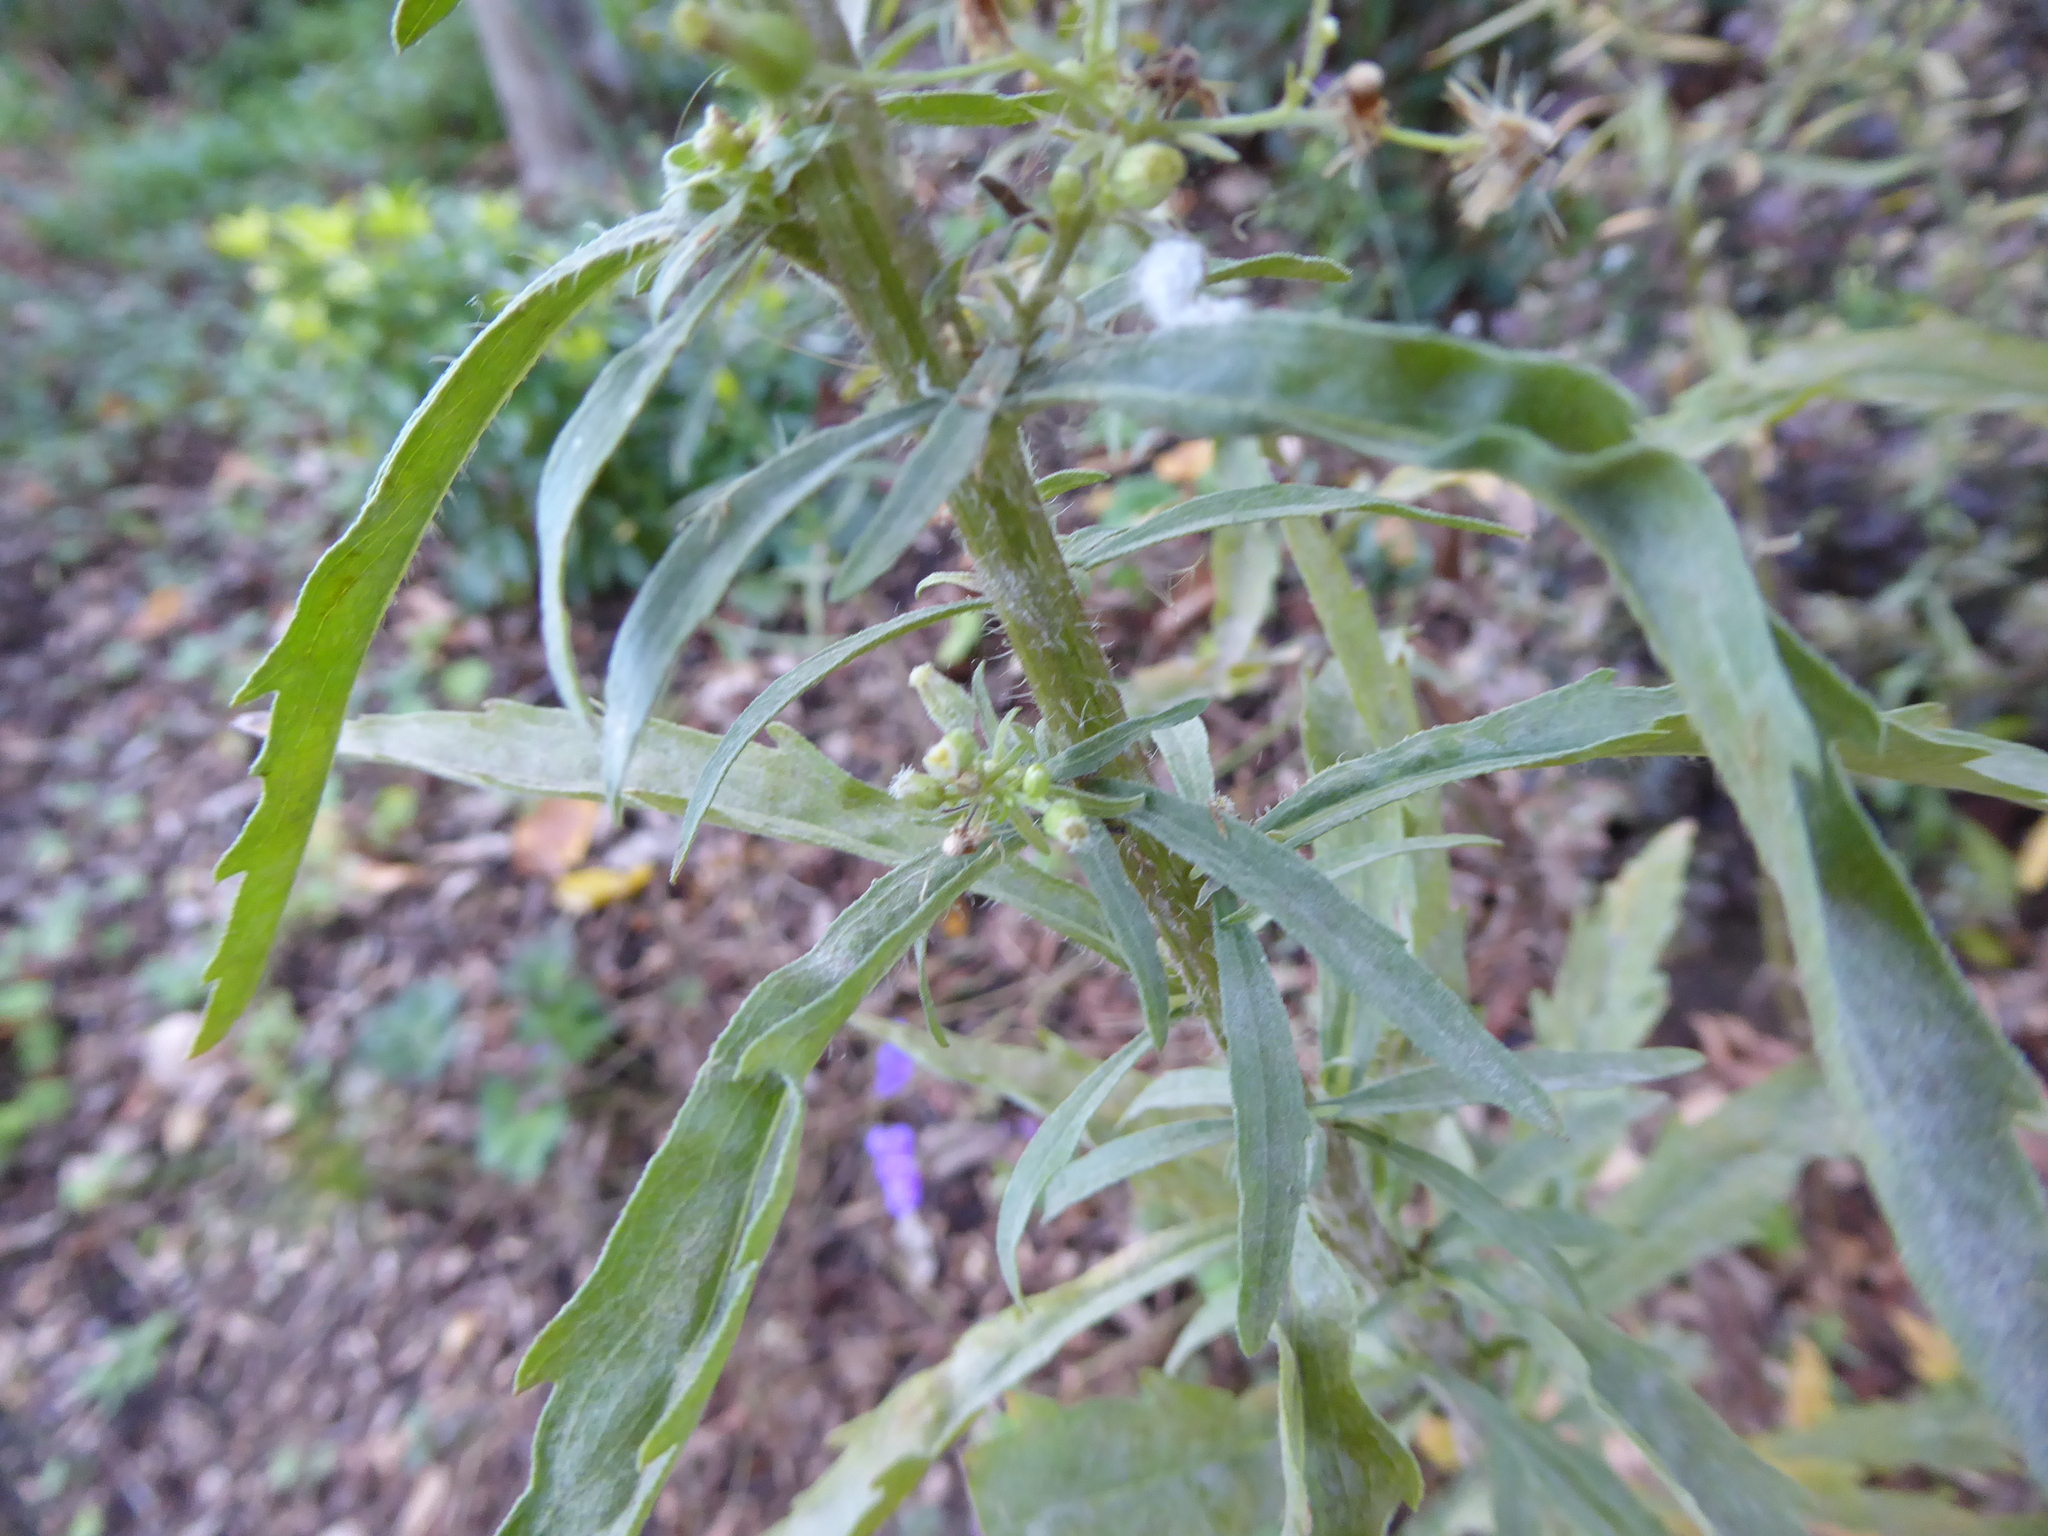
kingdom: Plantae
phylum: Tracheophyta
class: Magnoliopsida
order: Asterales
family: Asteraceae
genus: Erigeron
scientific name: Erigeron floribundus
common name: Bilbao fleabane
